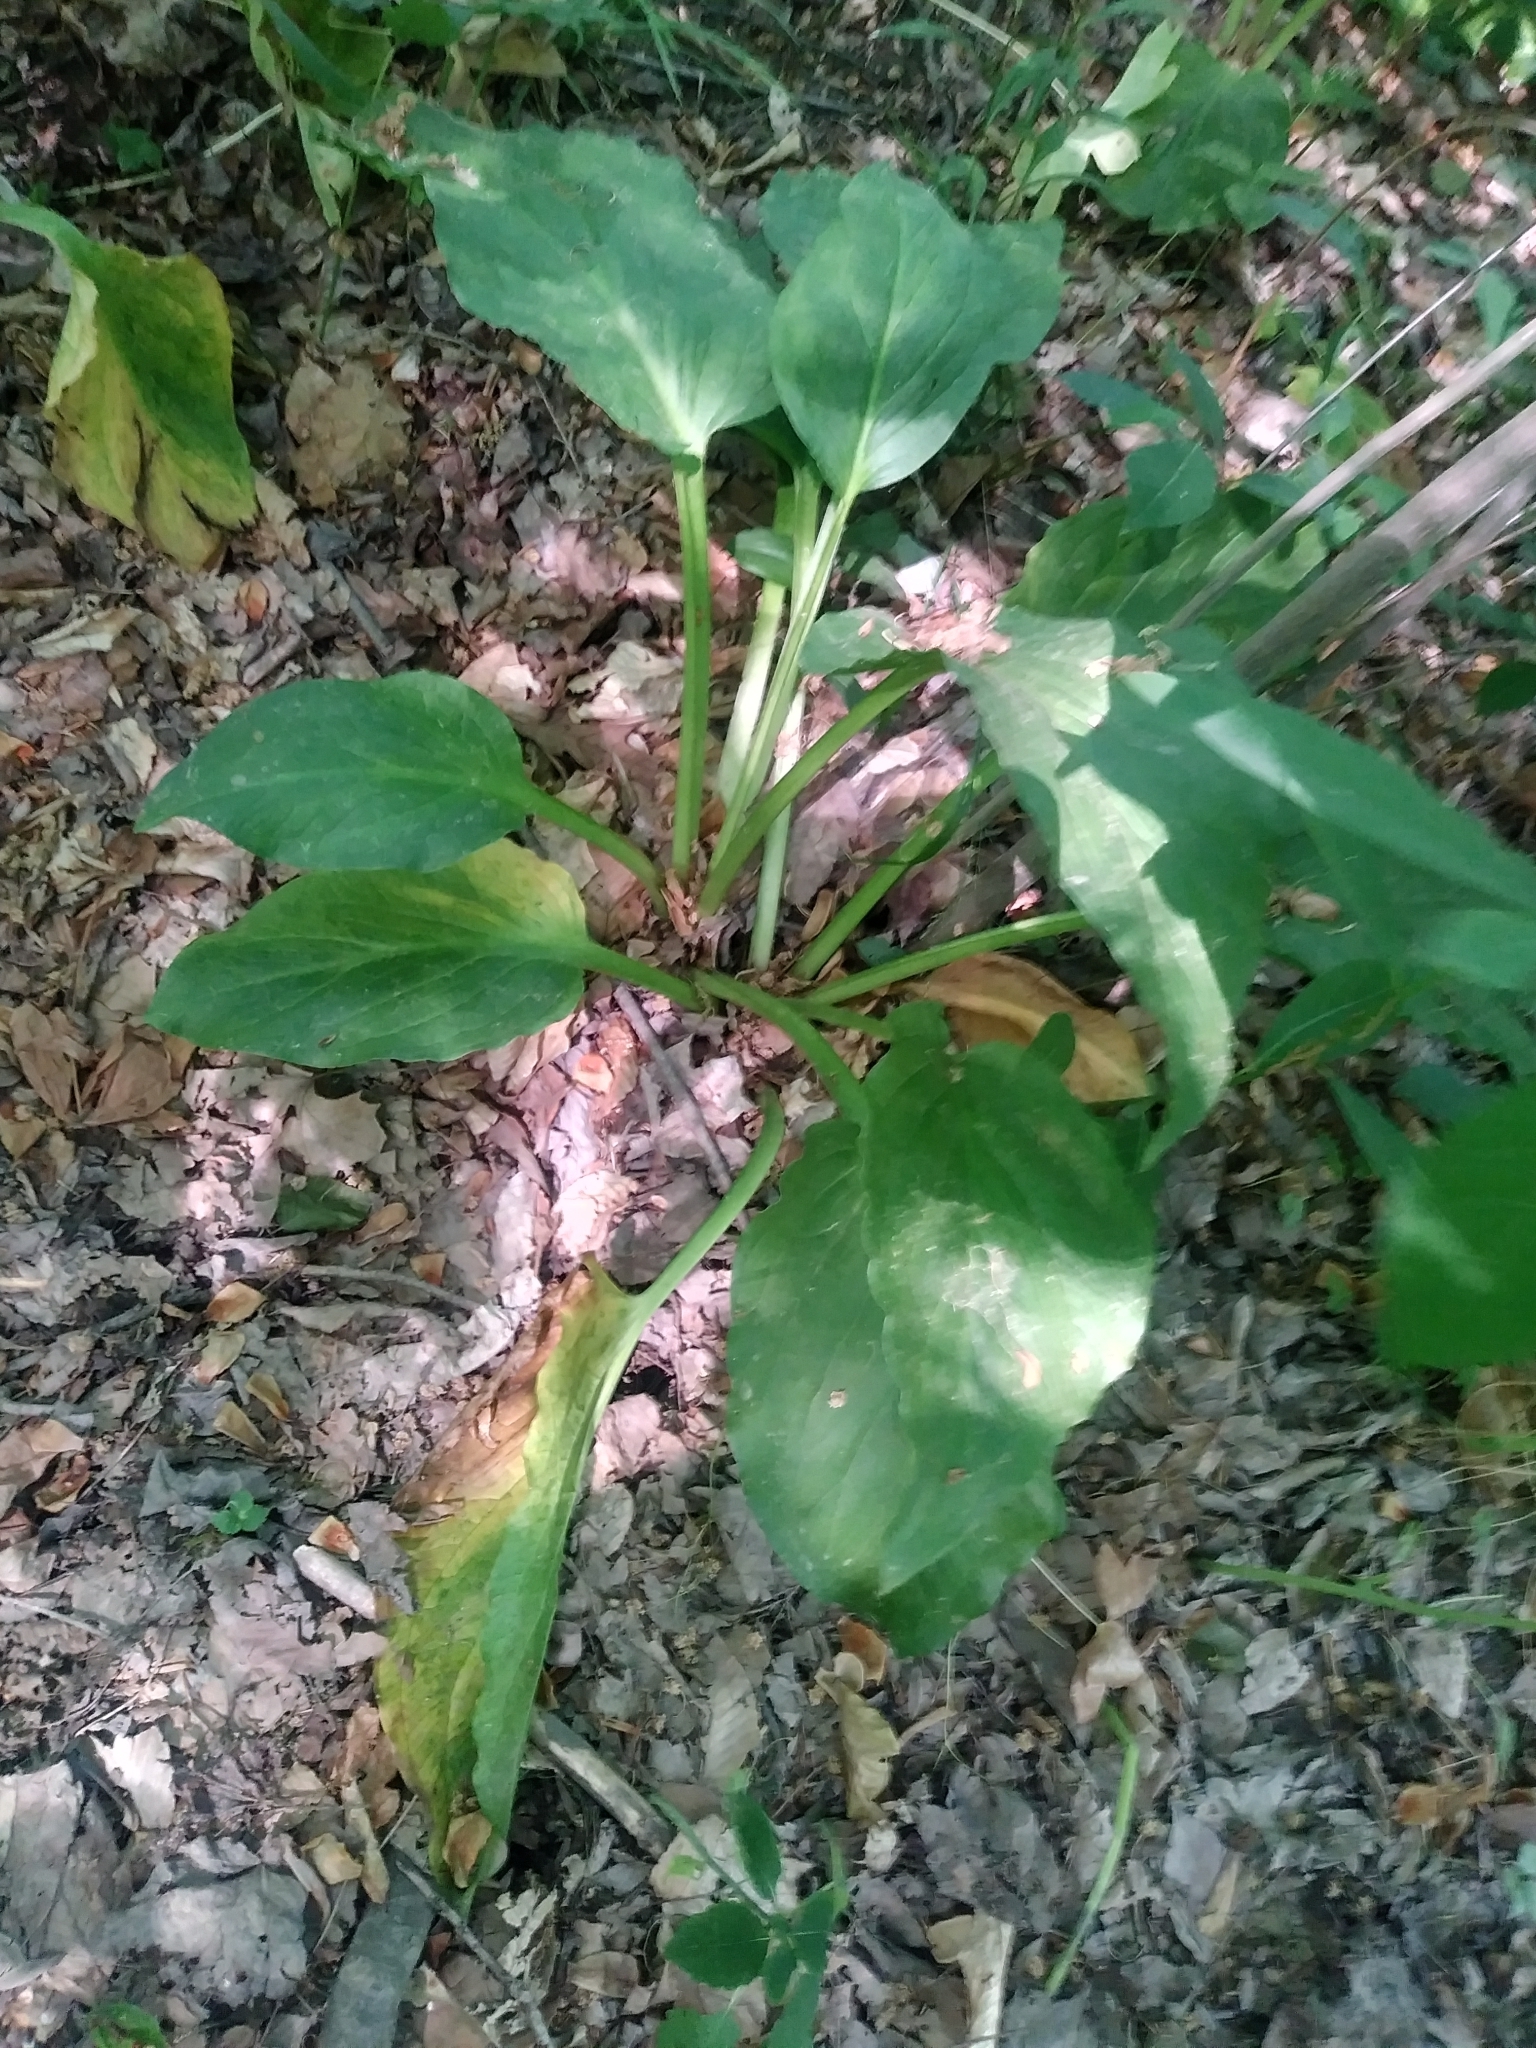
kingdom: Plantae
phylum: Tracheophyta
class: Liliopsida
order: Alismatales
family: Araceae
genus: Symplocarpus
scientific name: Symplocarpus foetidus
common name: Eastern skunk cabbage
